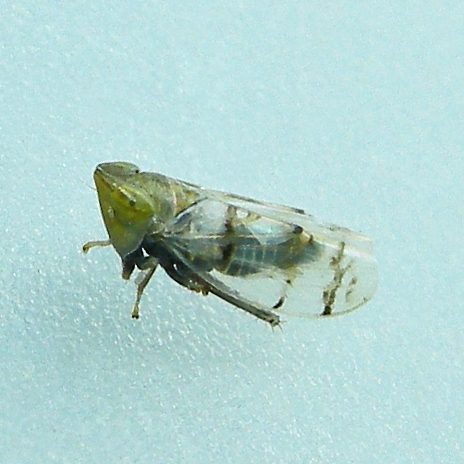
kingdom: Animalia
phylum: Arthropoda
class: Insecta
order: Hemiptera
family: Cicadellidae
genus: Japananus
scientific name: Japananus hyalinus
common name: The japanese maple leafhopper
